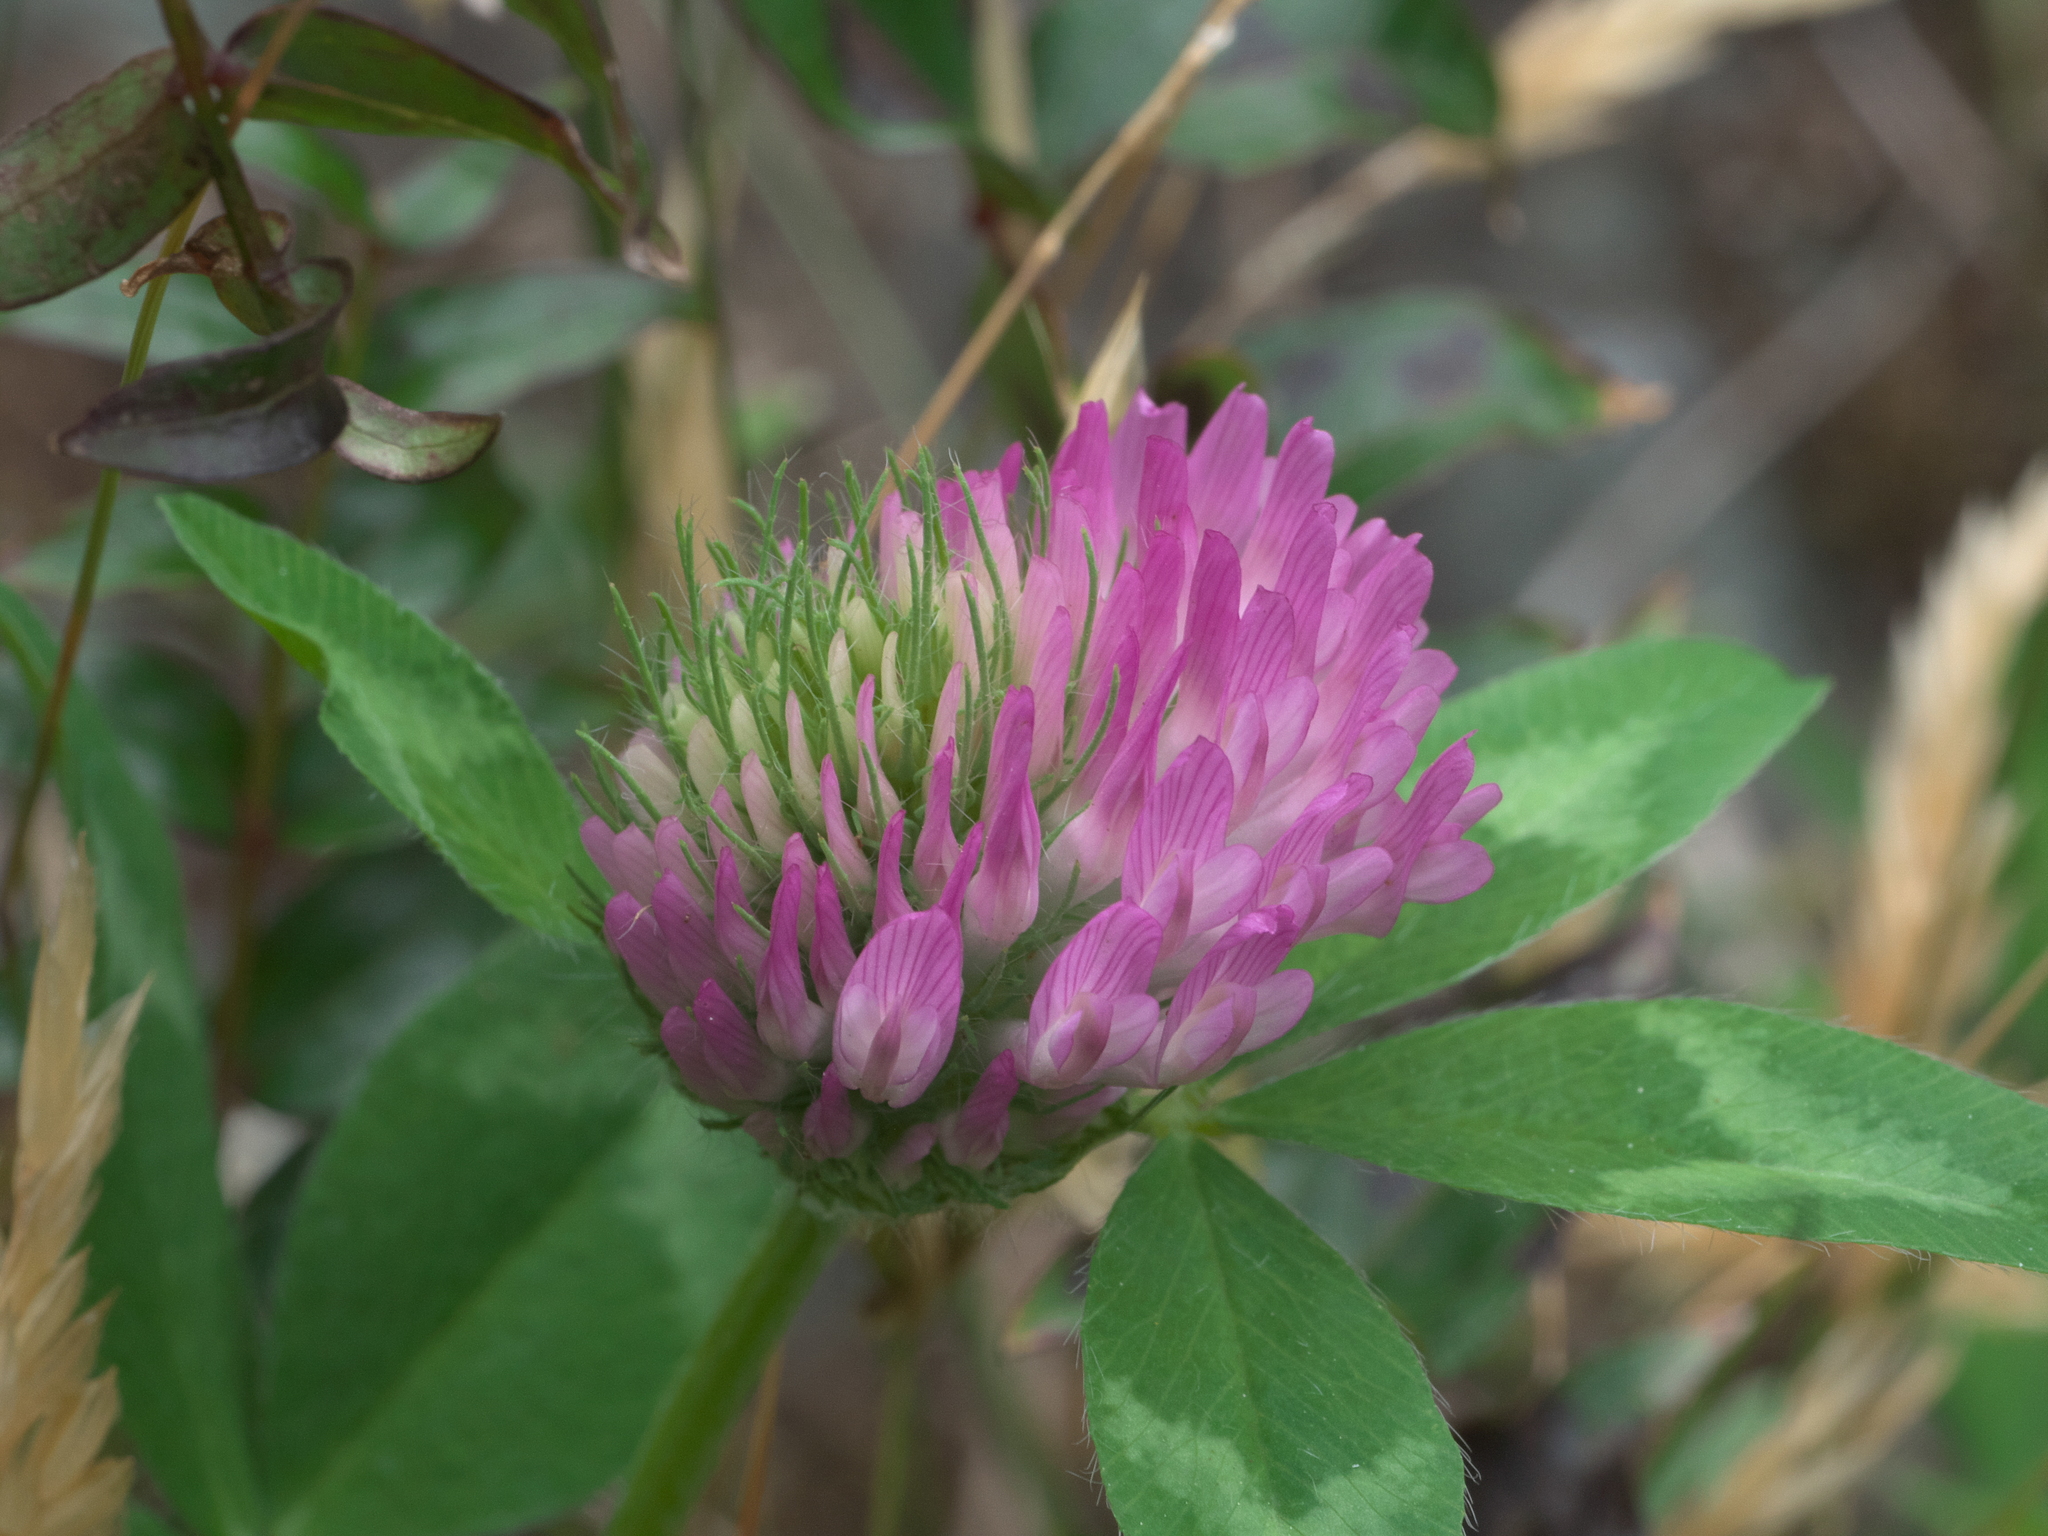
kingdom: Plantae
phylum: Tracheophyta
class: Magnoliopsida
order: Fabales
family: Fabaceae
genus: Trifolium
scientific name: Trifolium pratense
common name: Red clover
